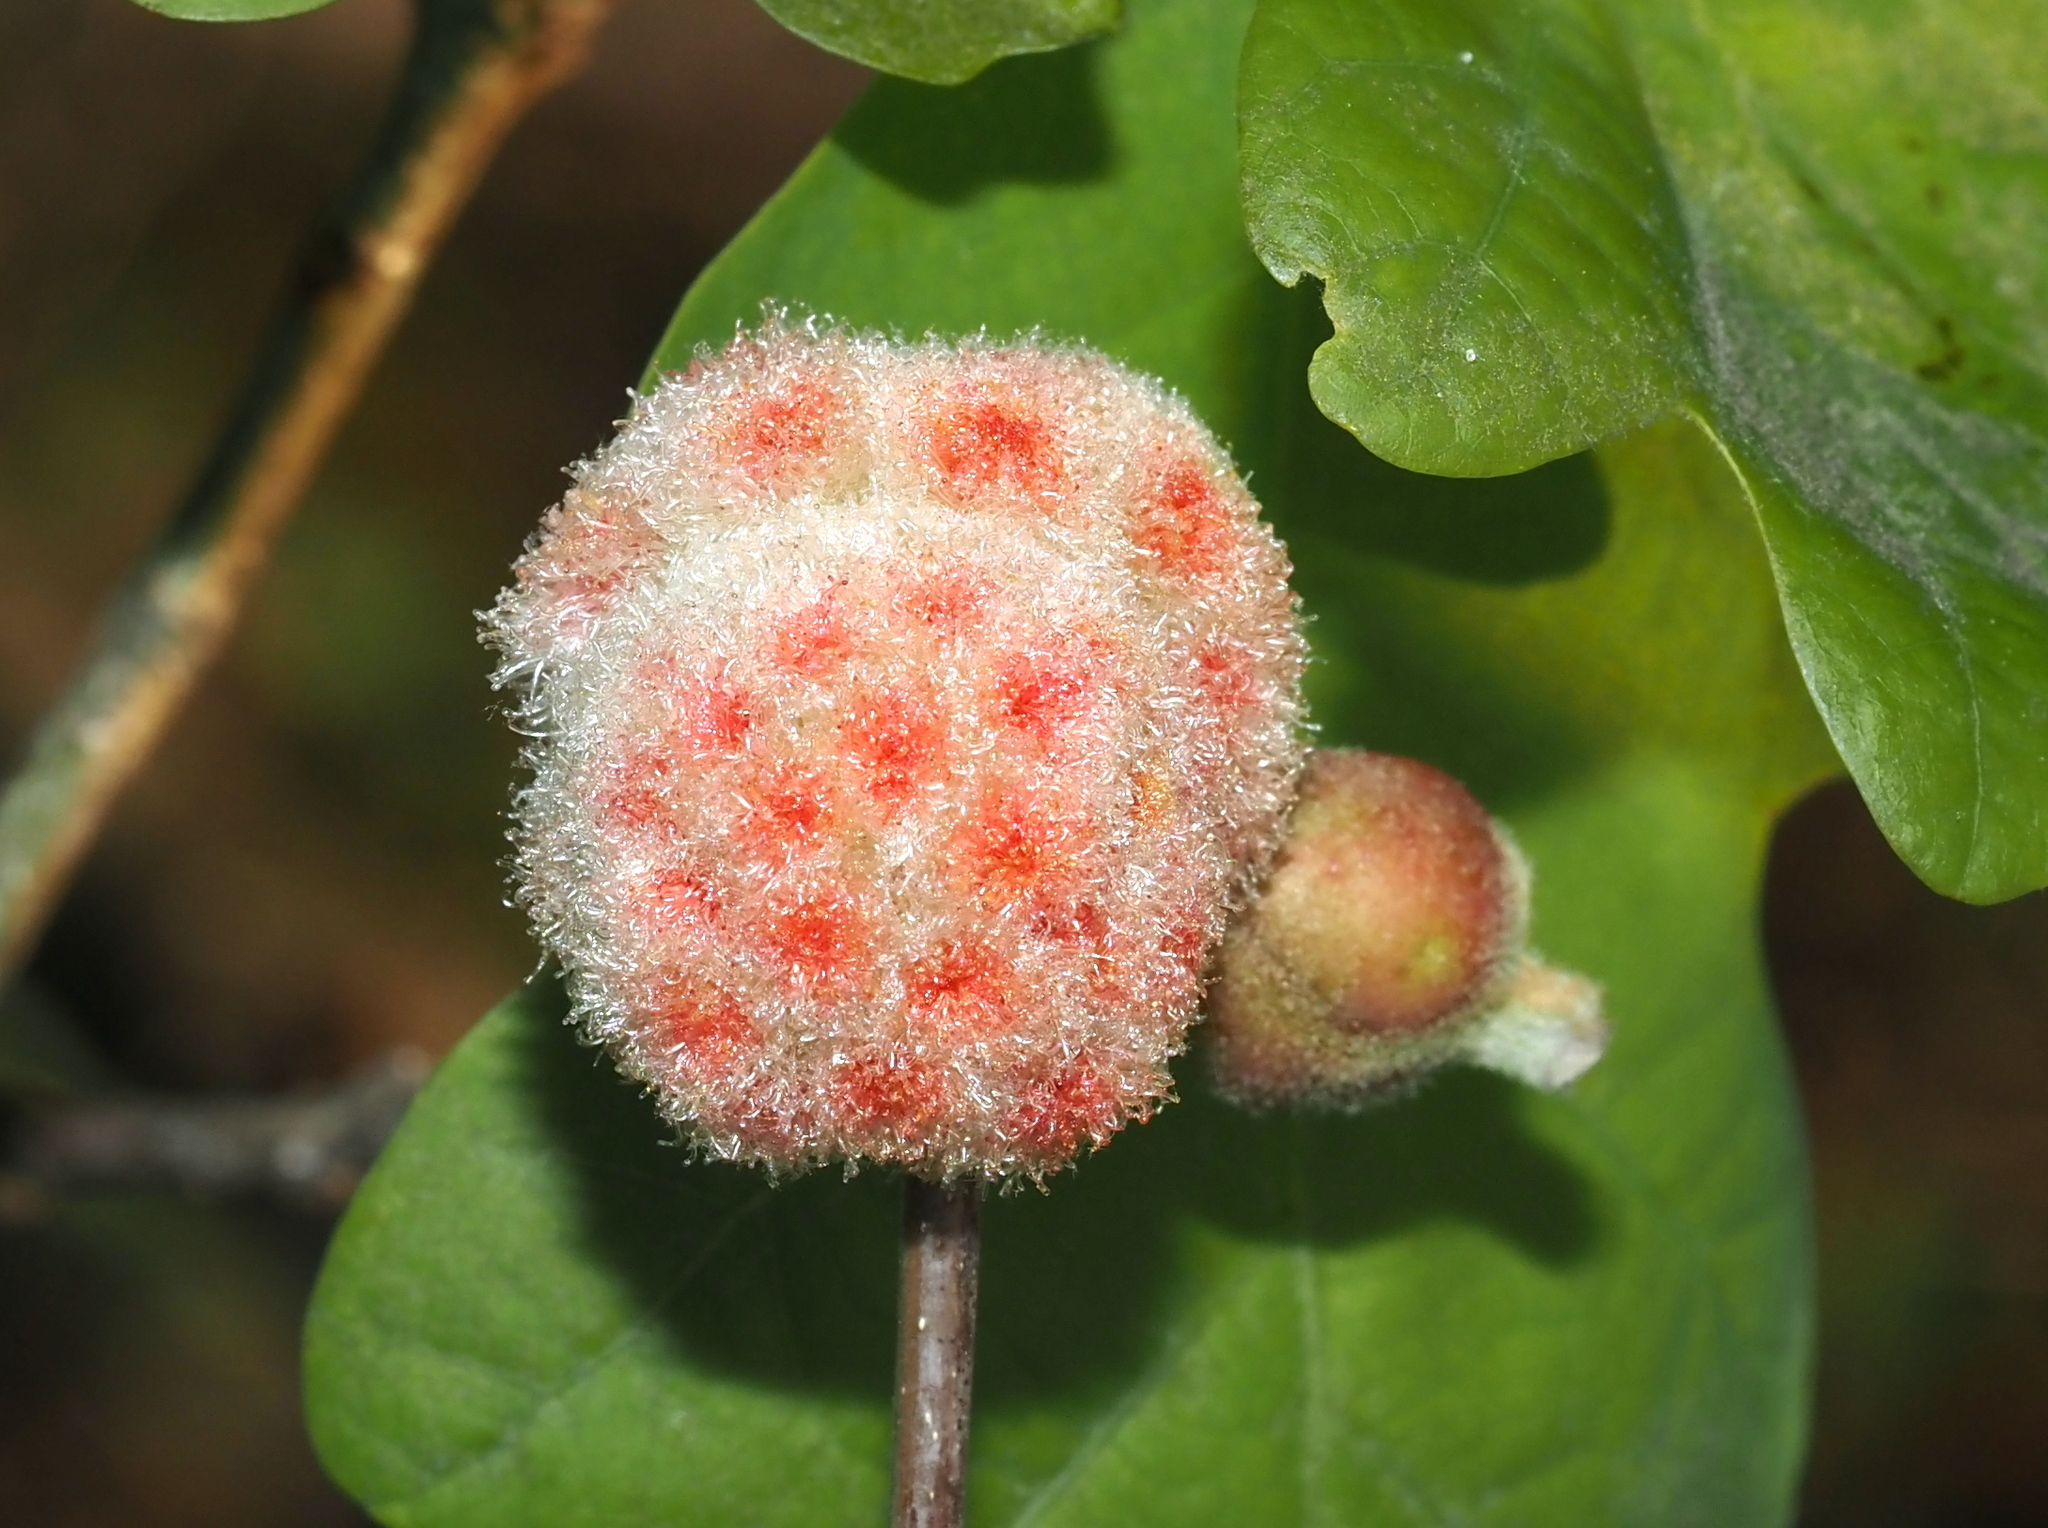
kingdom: Animalia
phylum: Arthropoda
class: Insecta
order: Hymenoptera
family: Cynipidae
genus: Callirhytis
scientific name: Callirhytis
